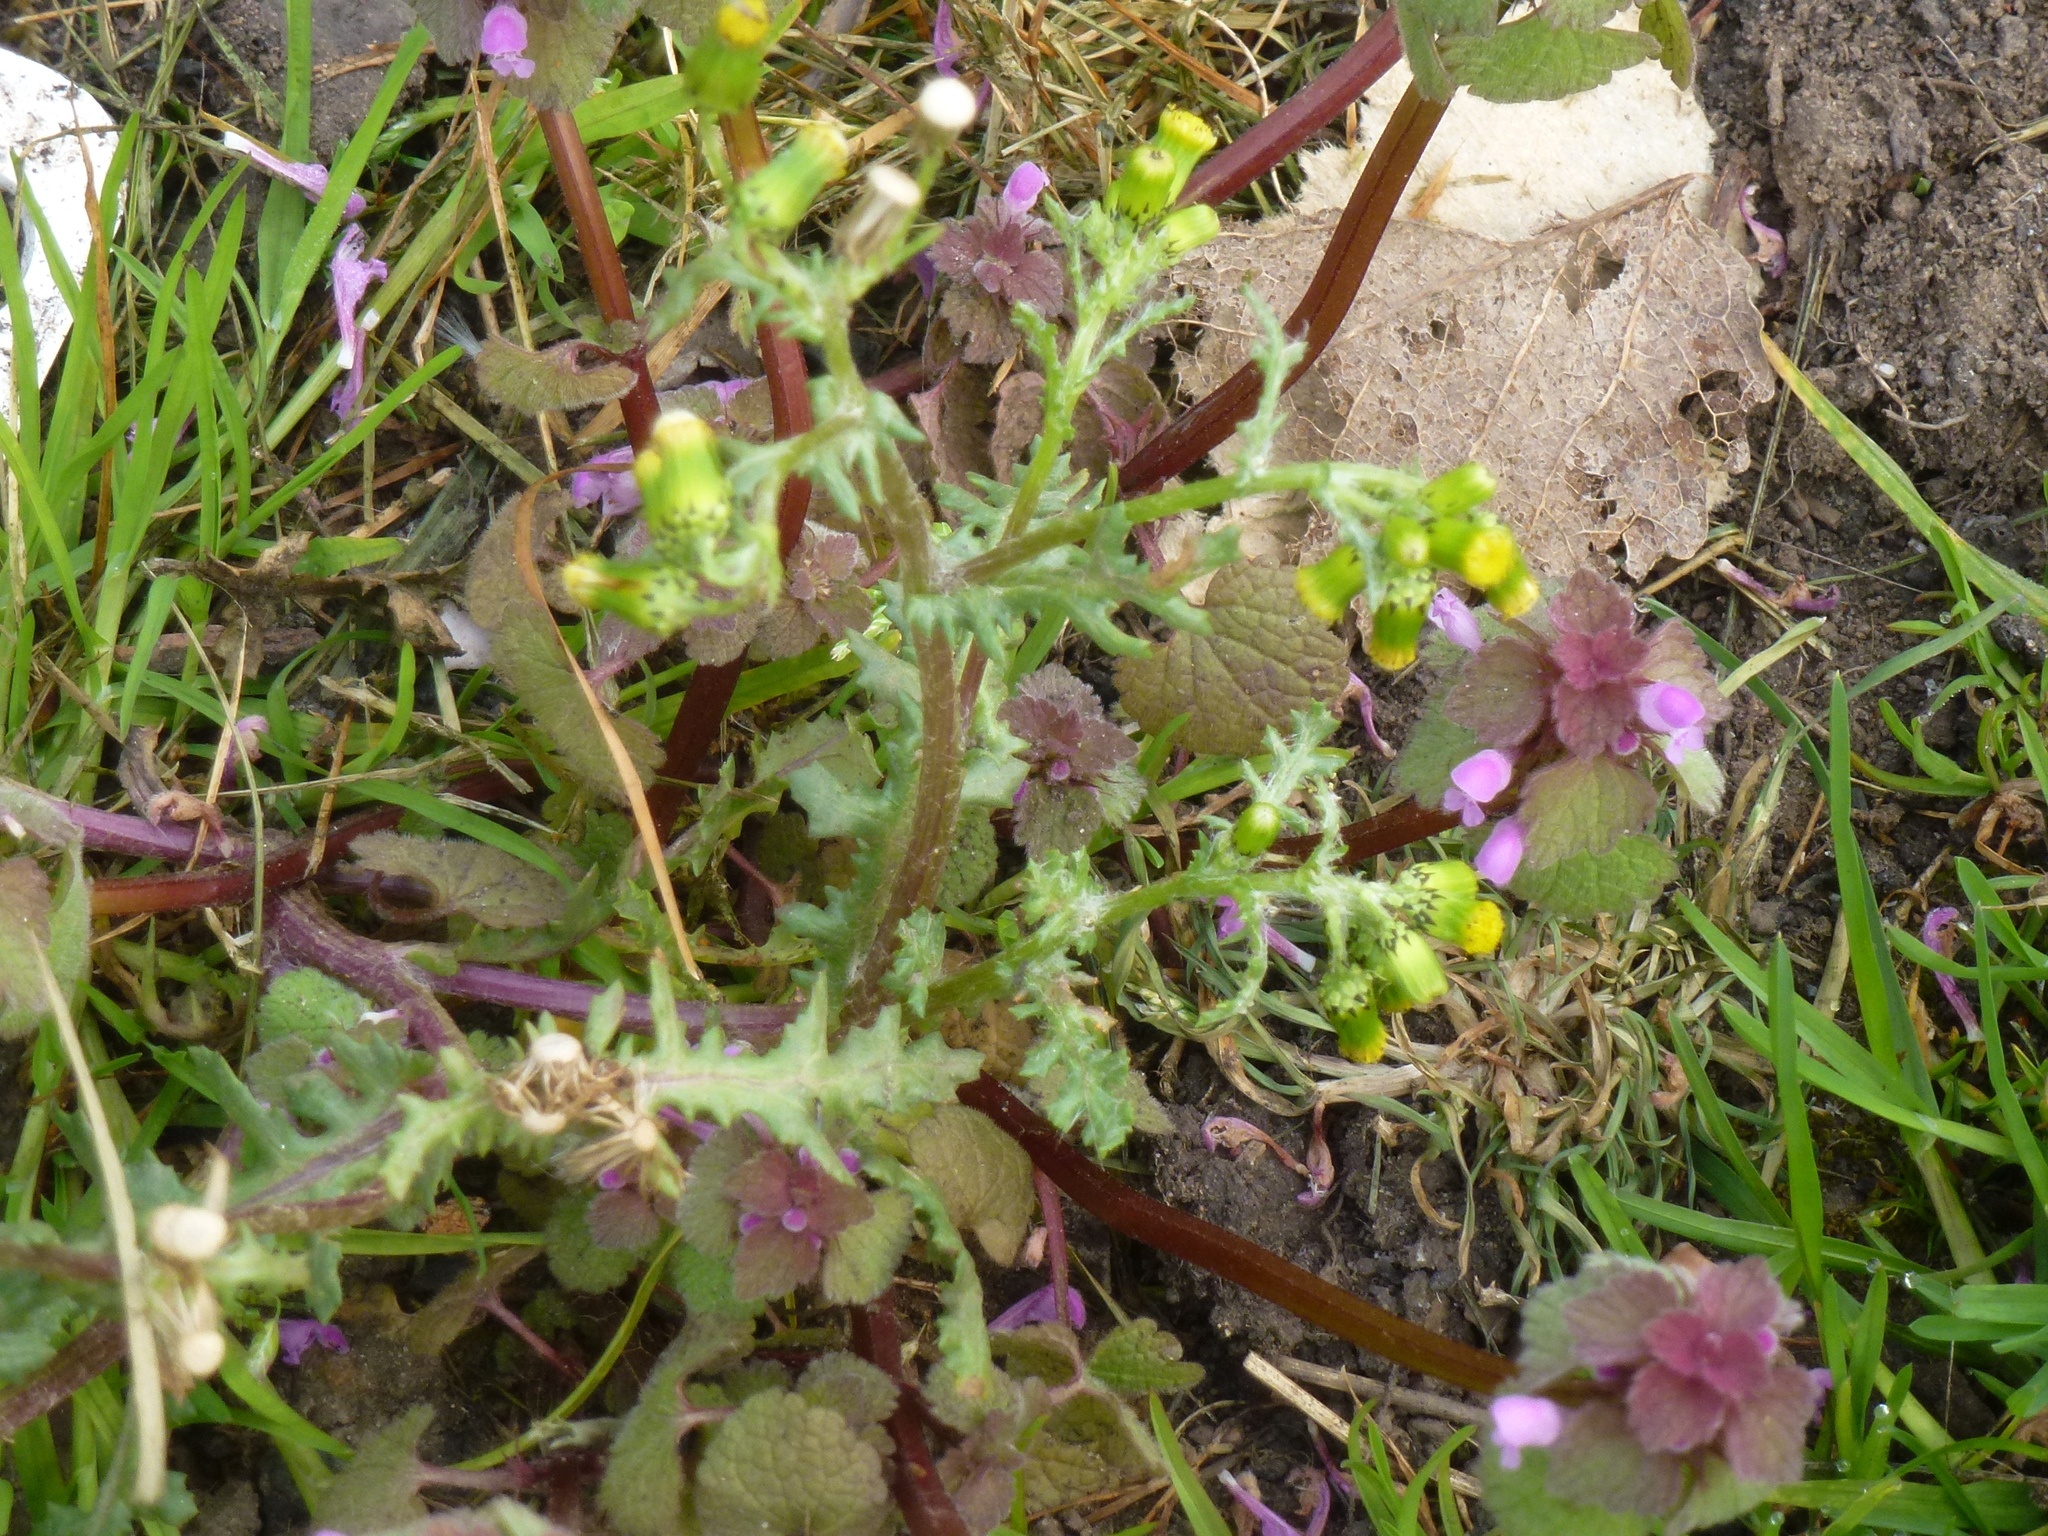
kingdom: Plantae
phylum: Tracheophyta
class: Magnoliopsida
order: Asterales
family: Asteraceae
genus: Senecio
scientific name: Senecio vulgaris
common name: Old-man-in-the-spring
